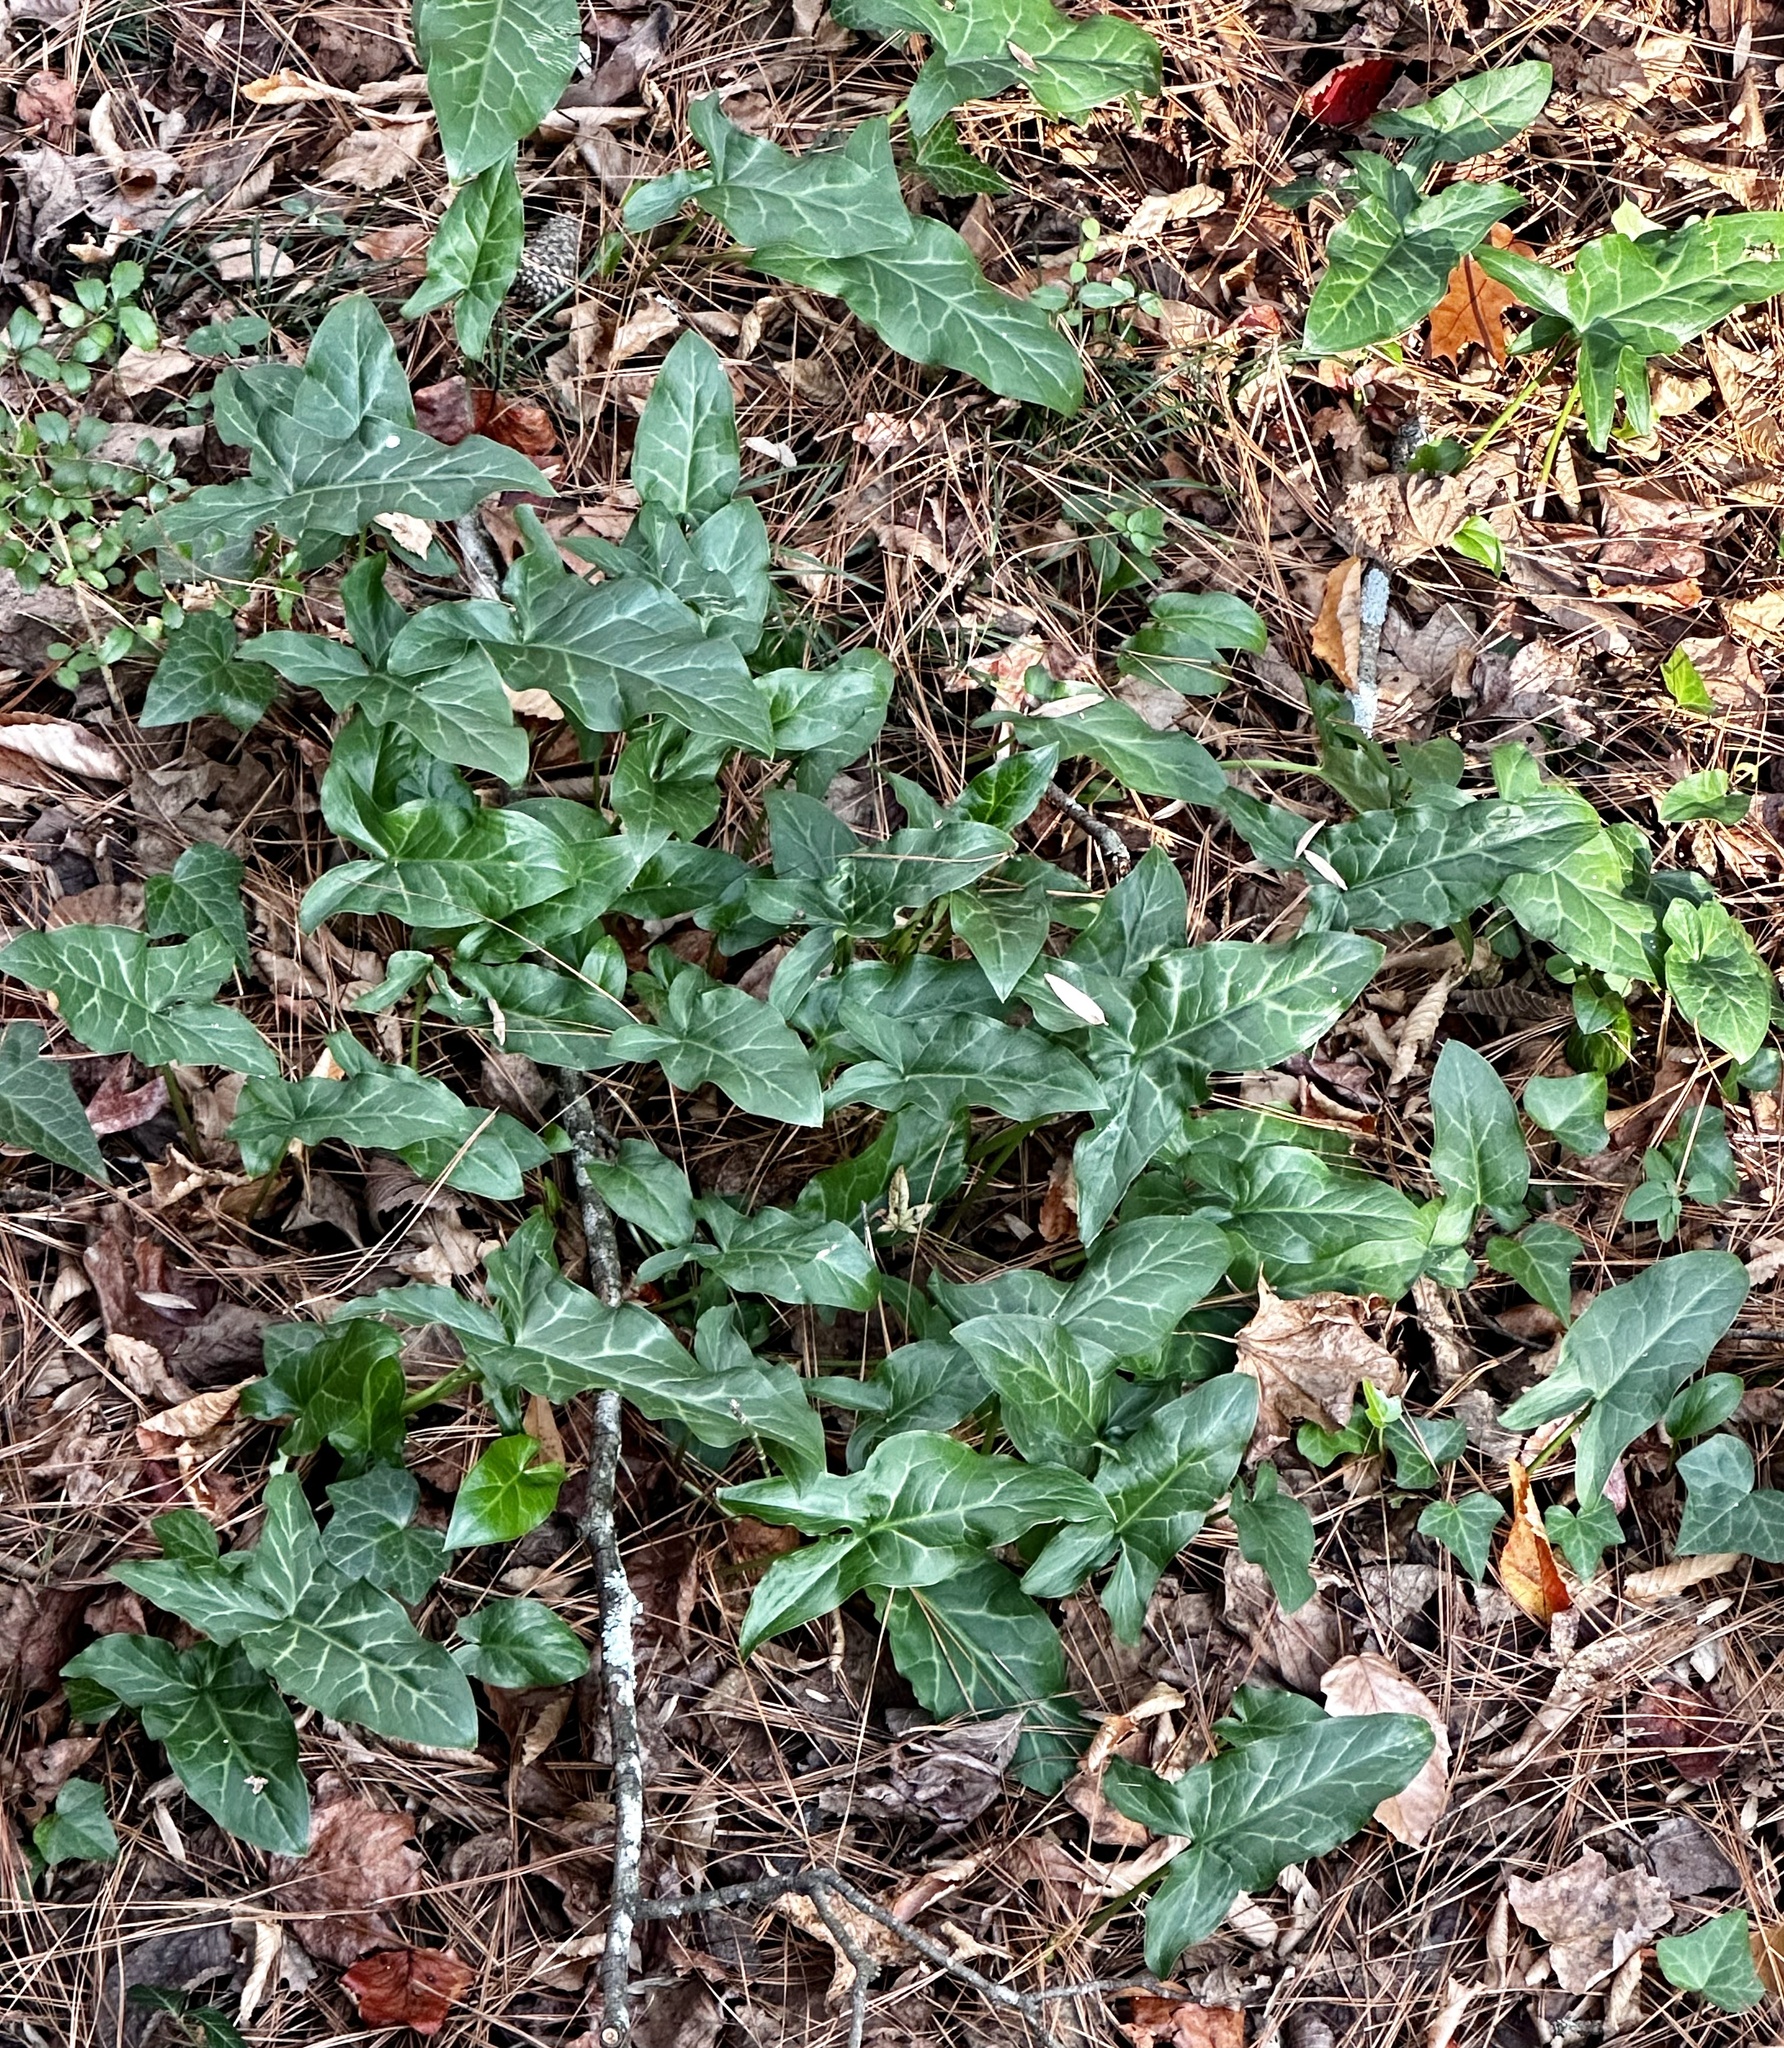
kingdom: Plantae
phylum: Tracheophyta
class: Liliopsida
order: Alismatales
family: Araceae
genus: Arum
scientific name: Arum italicum
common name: Italian lords-and-ladies
